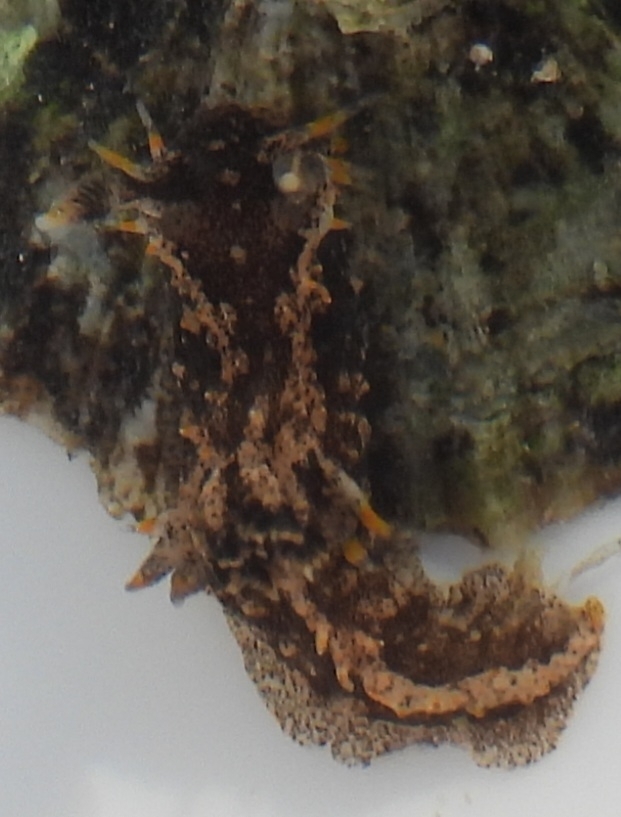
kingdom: Animalia
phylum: Mollusca
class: Gastropoda
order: Nudibranchia
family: Polyceridae
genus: Polycera
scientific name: Polycera hedgpethi
